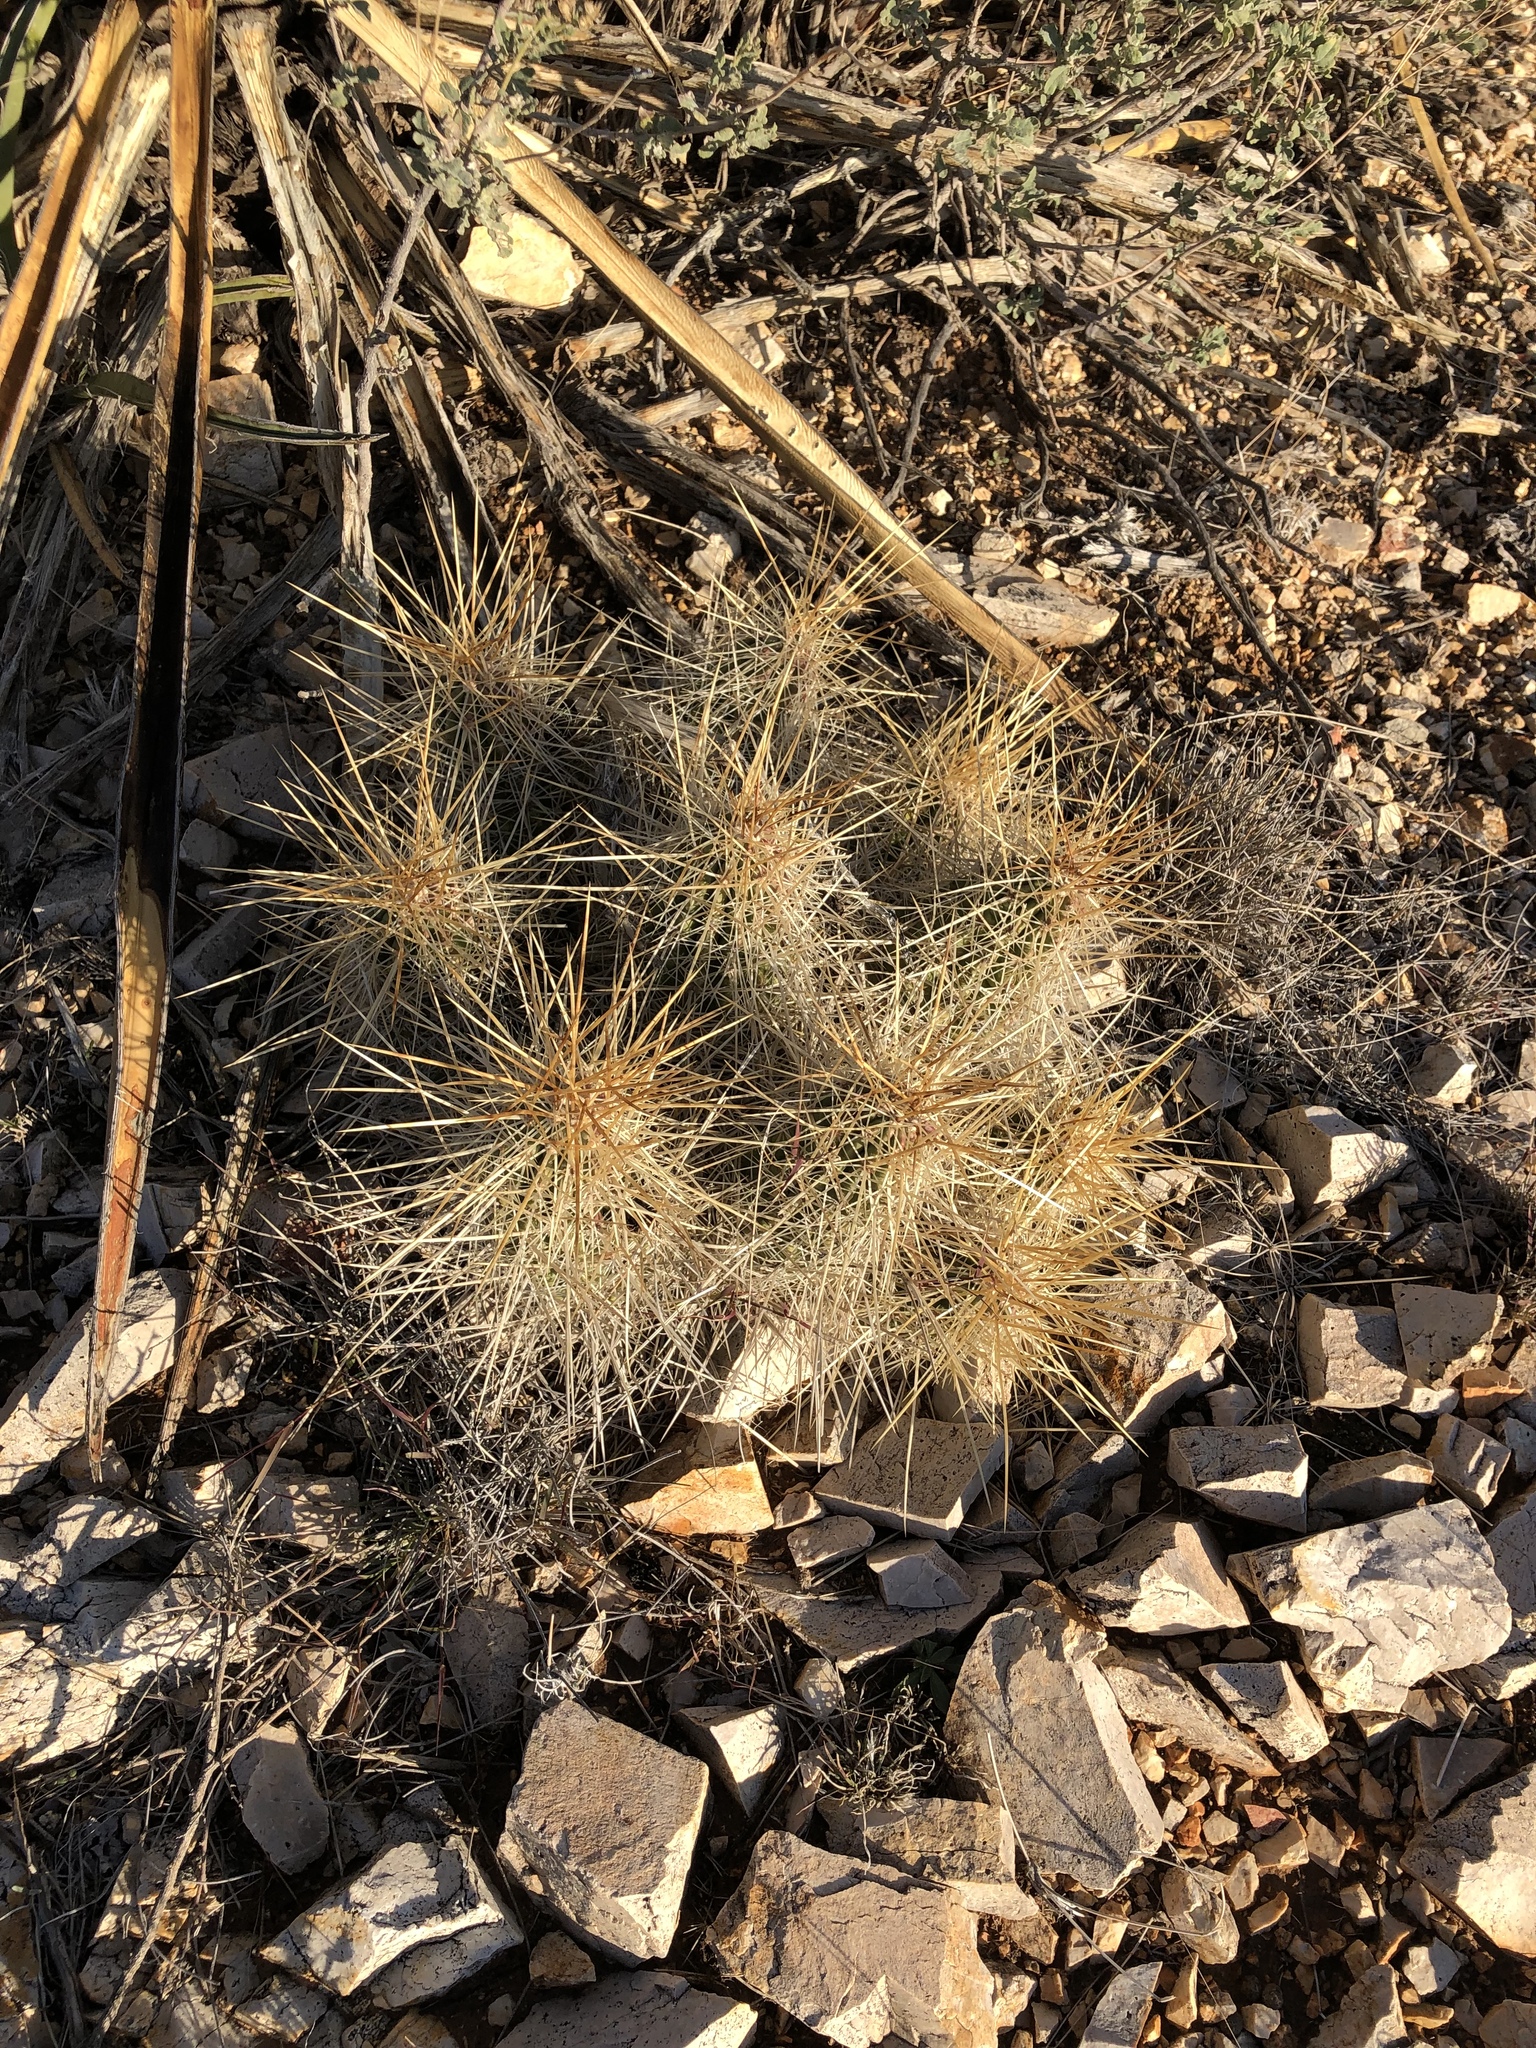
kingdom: Plantae
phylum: Tracheophyta
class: Magnoliopsida
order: Caryophyllales
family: Cactaceae
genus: Echinocereus
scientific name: Echinocereus stramineus
